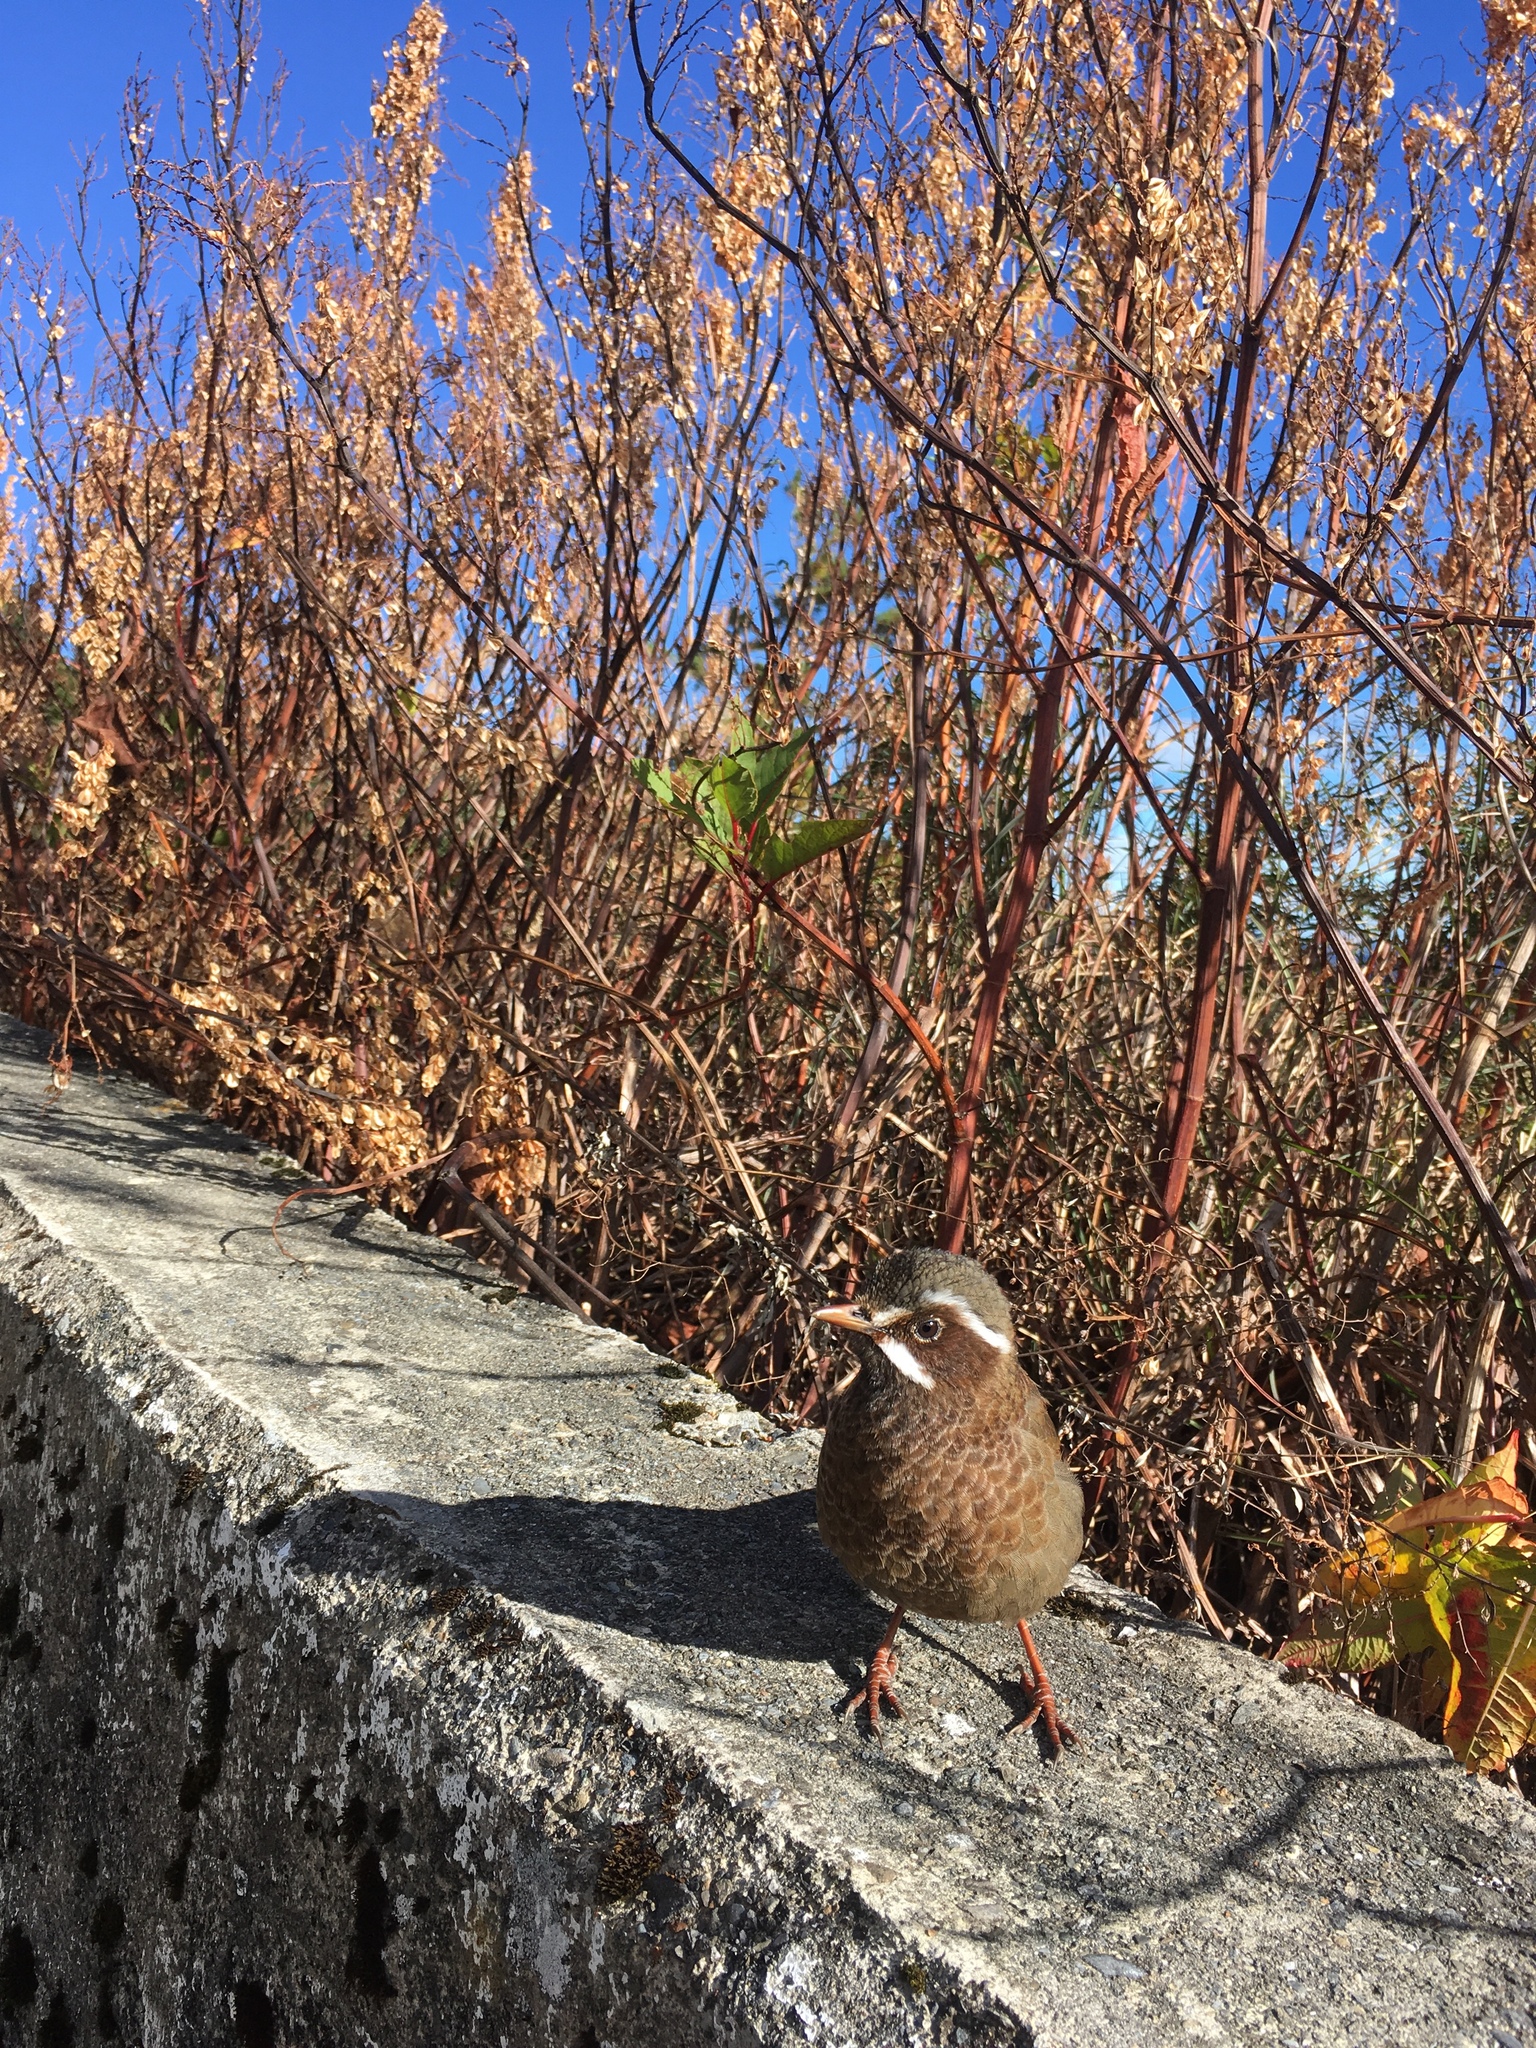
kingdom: Animalia
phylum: Chordata
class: Aves
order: Passeriformes
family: Leiothrichidae
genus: Trochalopteron
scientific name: Trochalopteron morrisonianum
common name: White-whiskered laughingthrush
